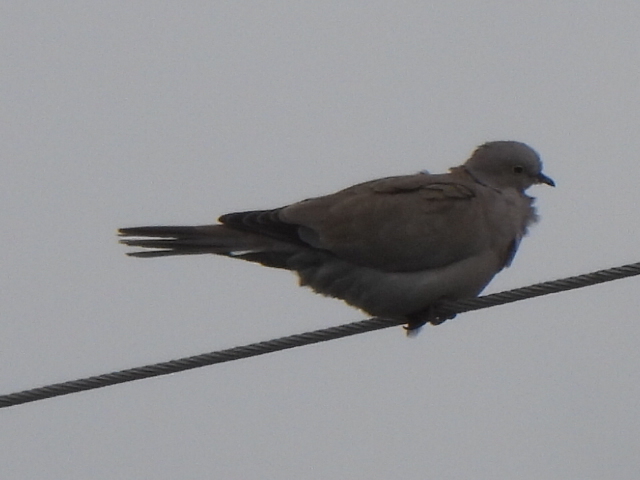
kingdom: Animalia
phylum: Chordata
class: Aves
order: Columbiformes
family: Columbidae
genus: Streptopelia
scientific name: Streptopelia decaocto
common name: Eurasian collared dove
